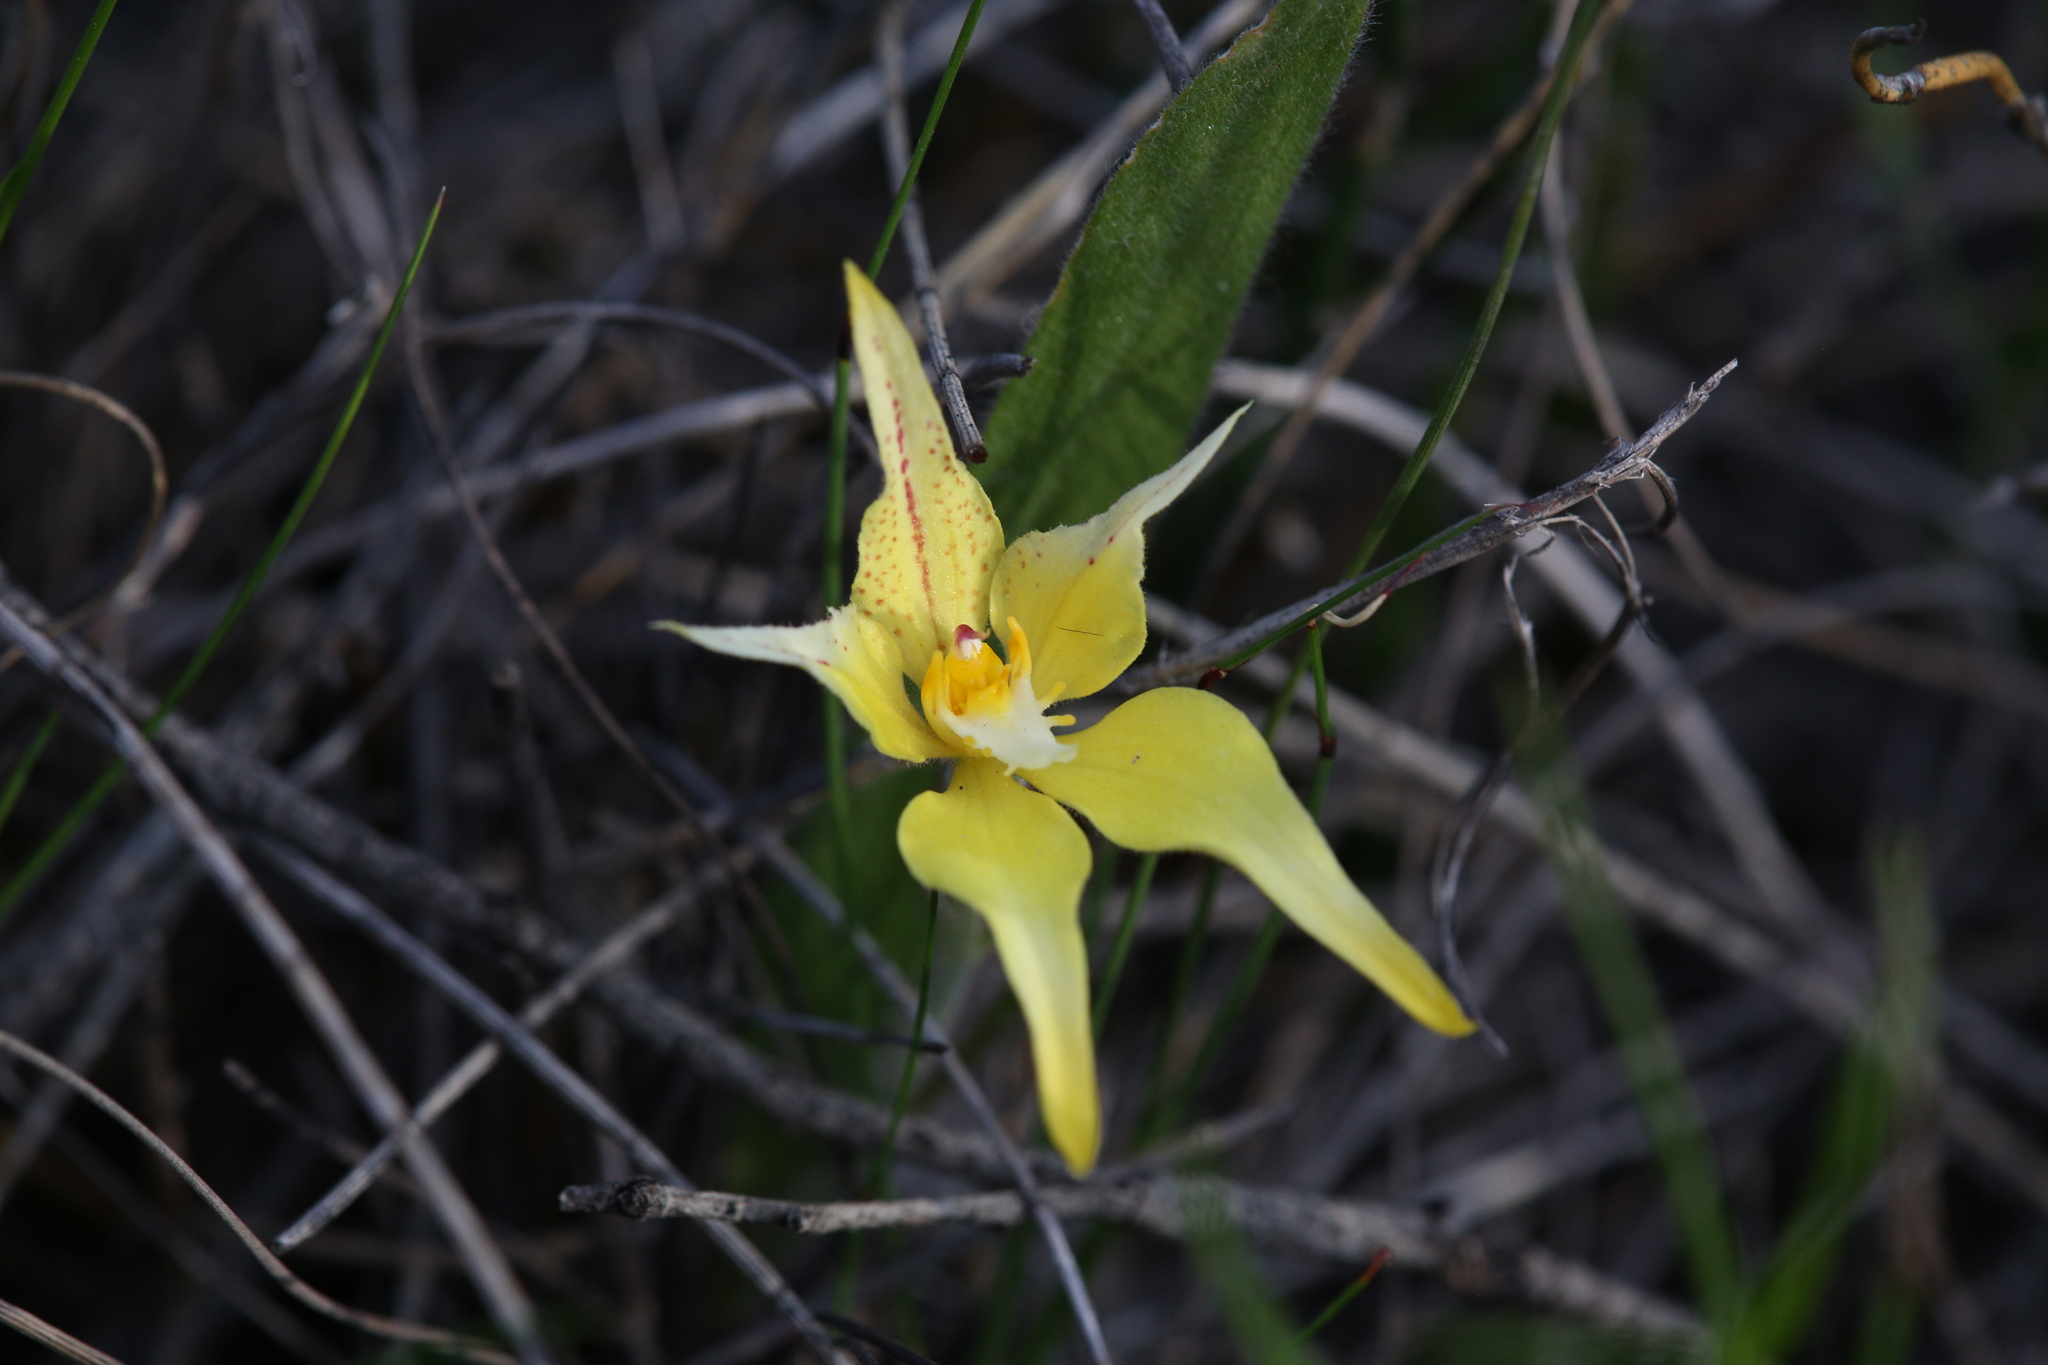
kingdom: Plantae
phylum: Tracheophyta
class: Liliopsida
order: Asparagales
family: Orchidaceae
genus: Caladenia
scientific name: Caladenia flava
